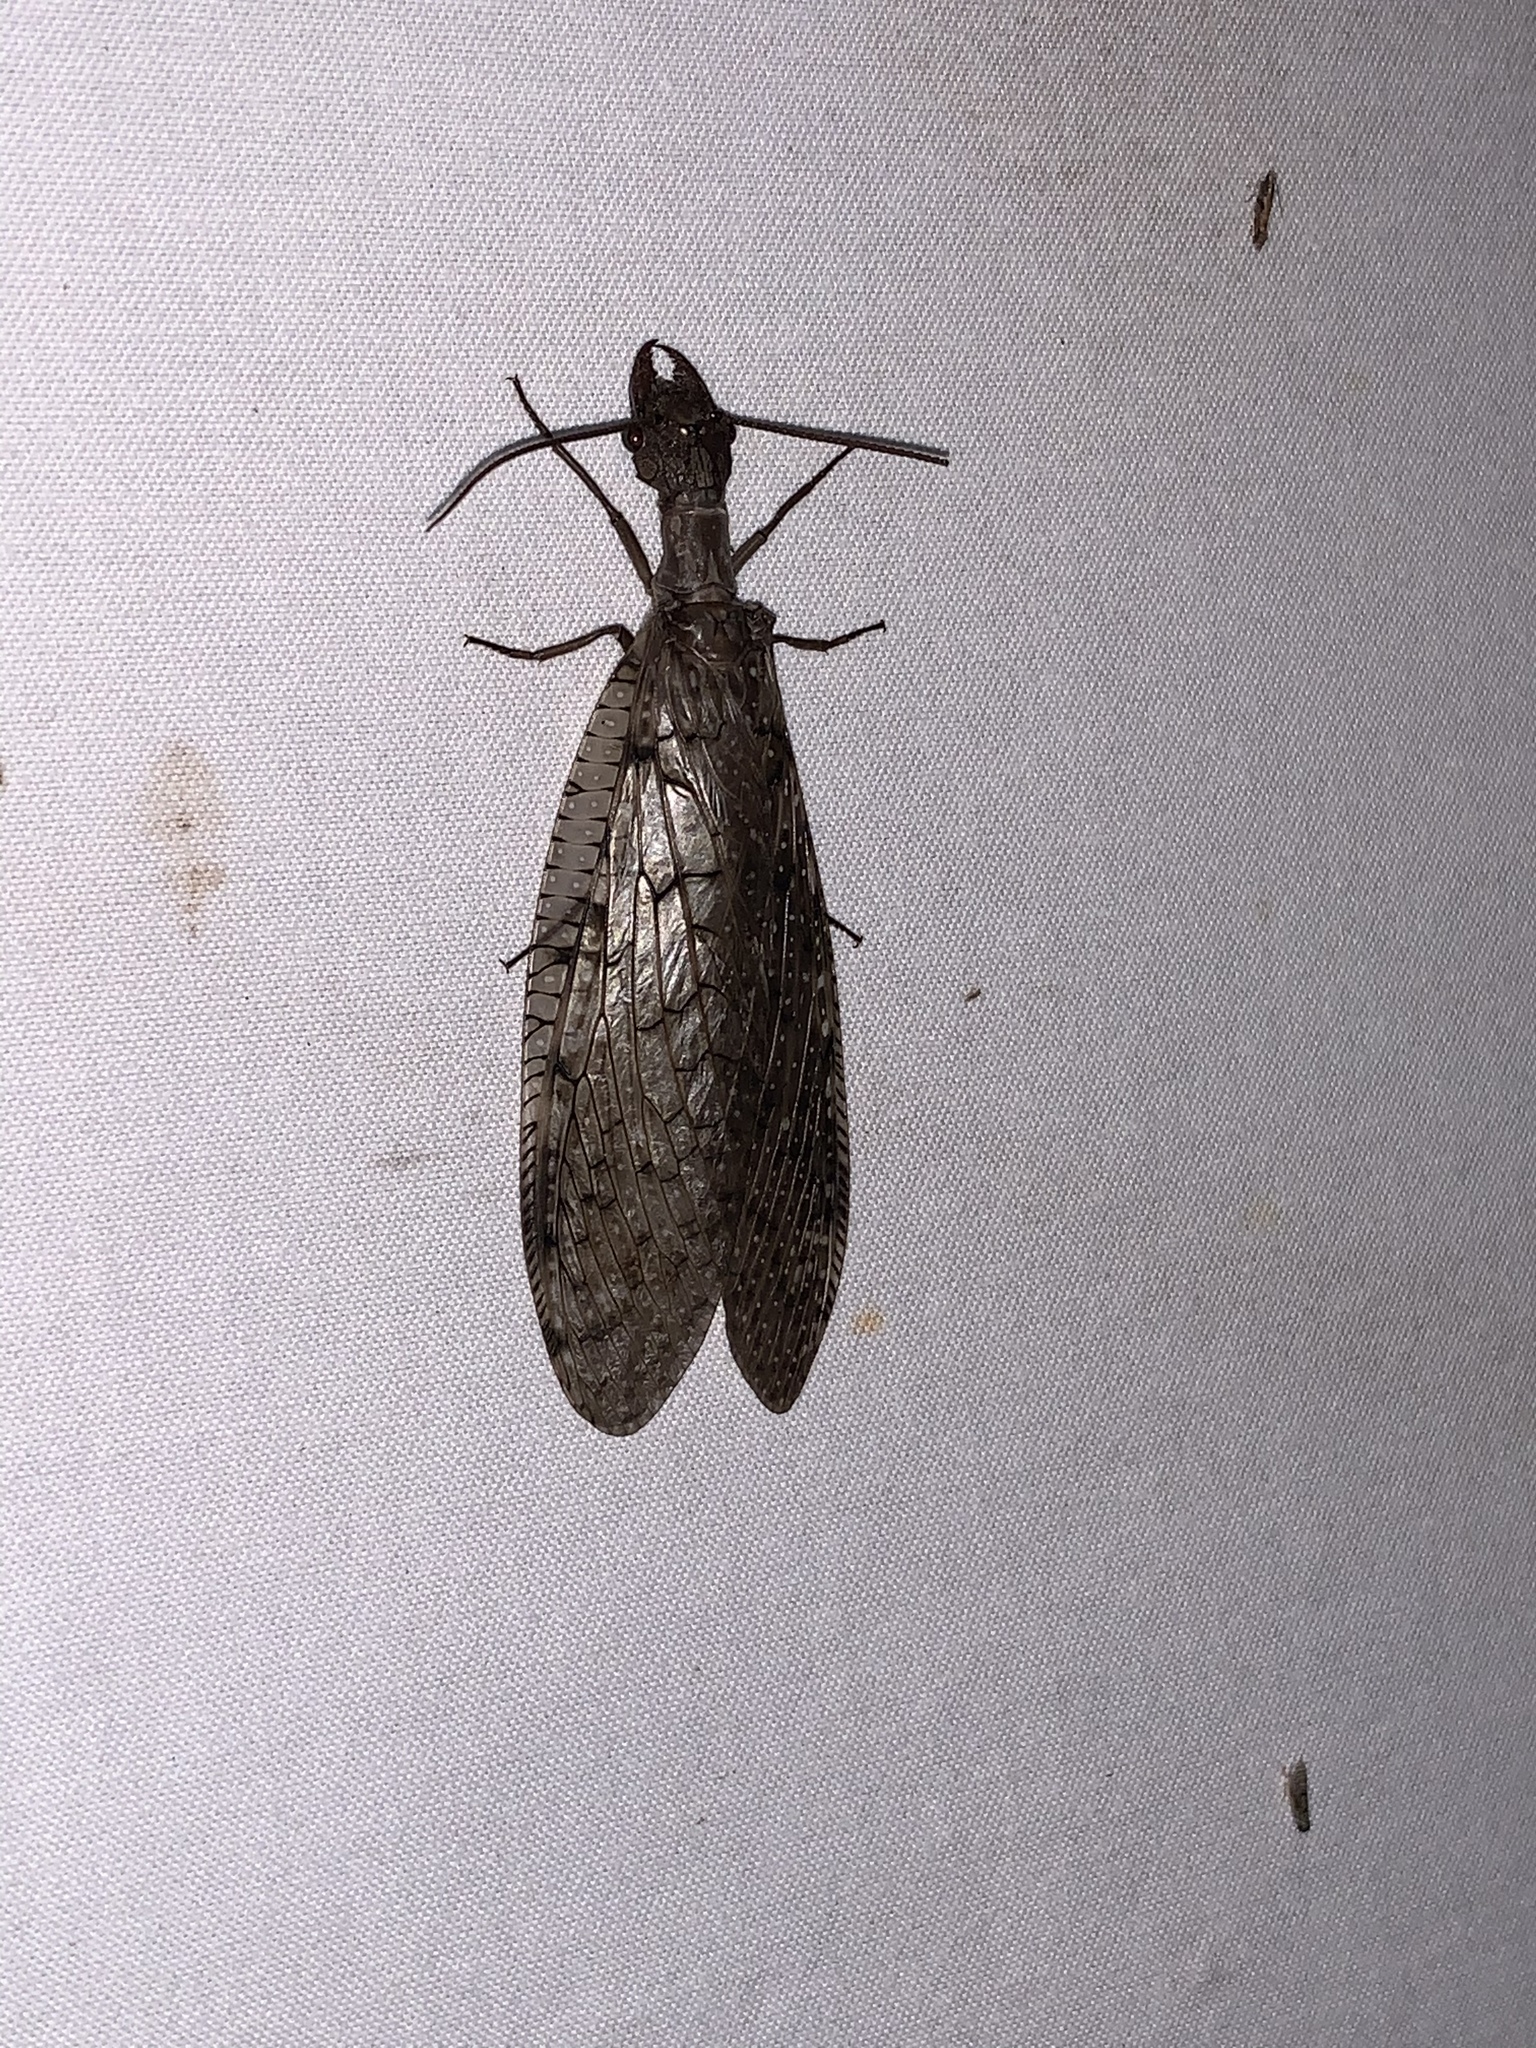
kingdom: Animalia
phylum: Arthropoda
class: Insecta
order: Megaloptera
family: Corydalidae
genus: Corydalus
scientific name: Corydalus cornutus
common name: Dobsonfly
